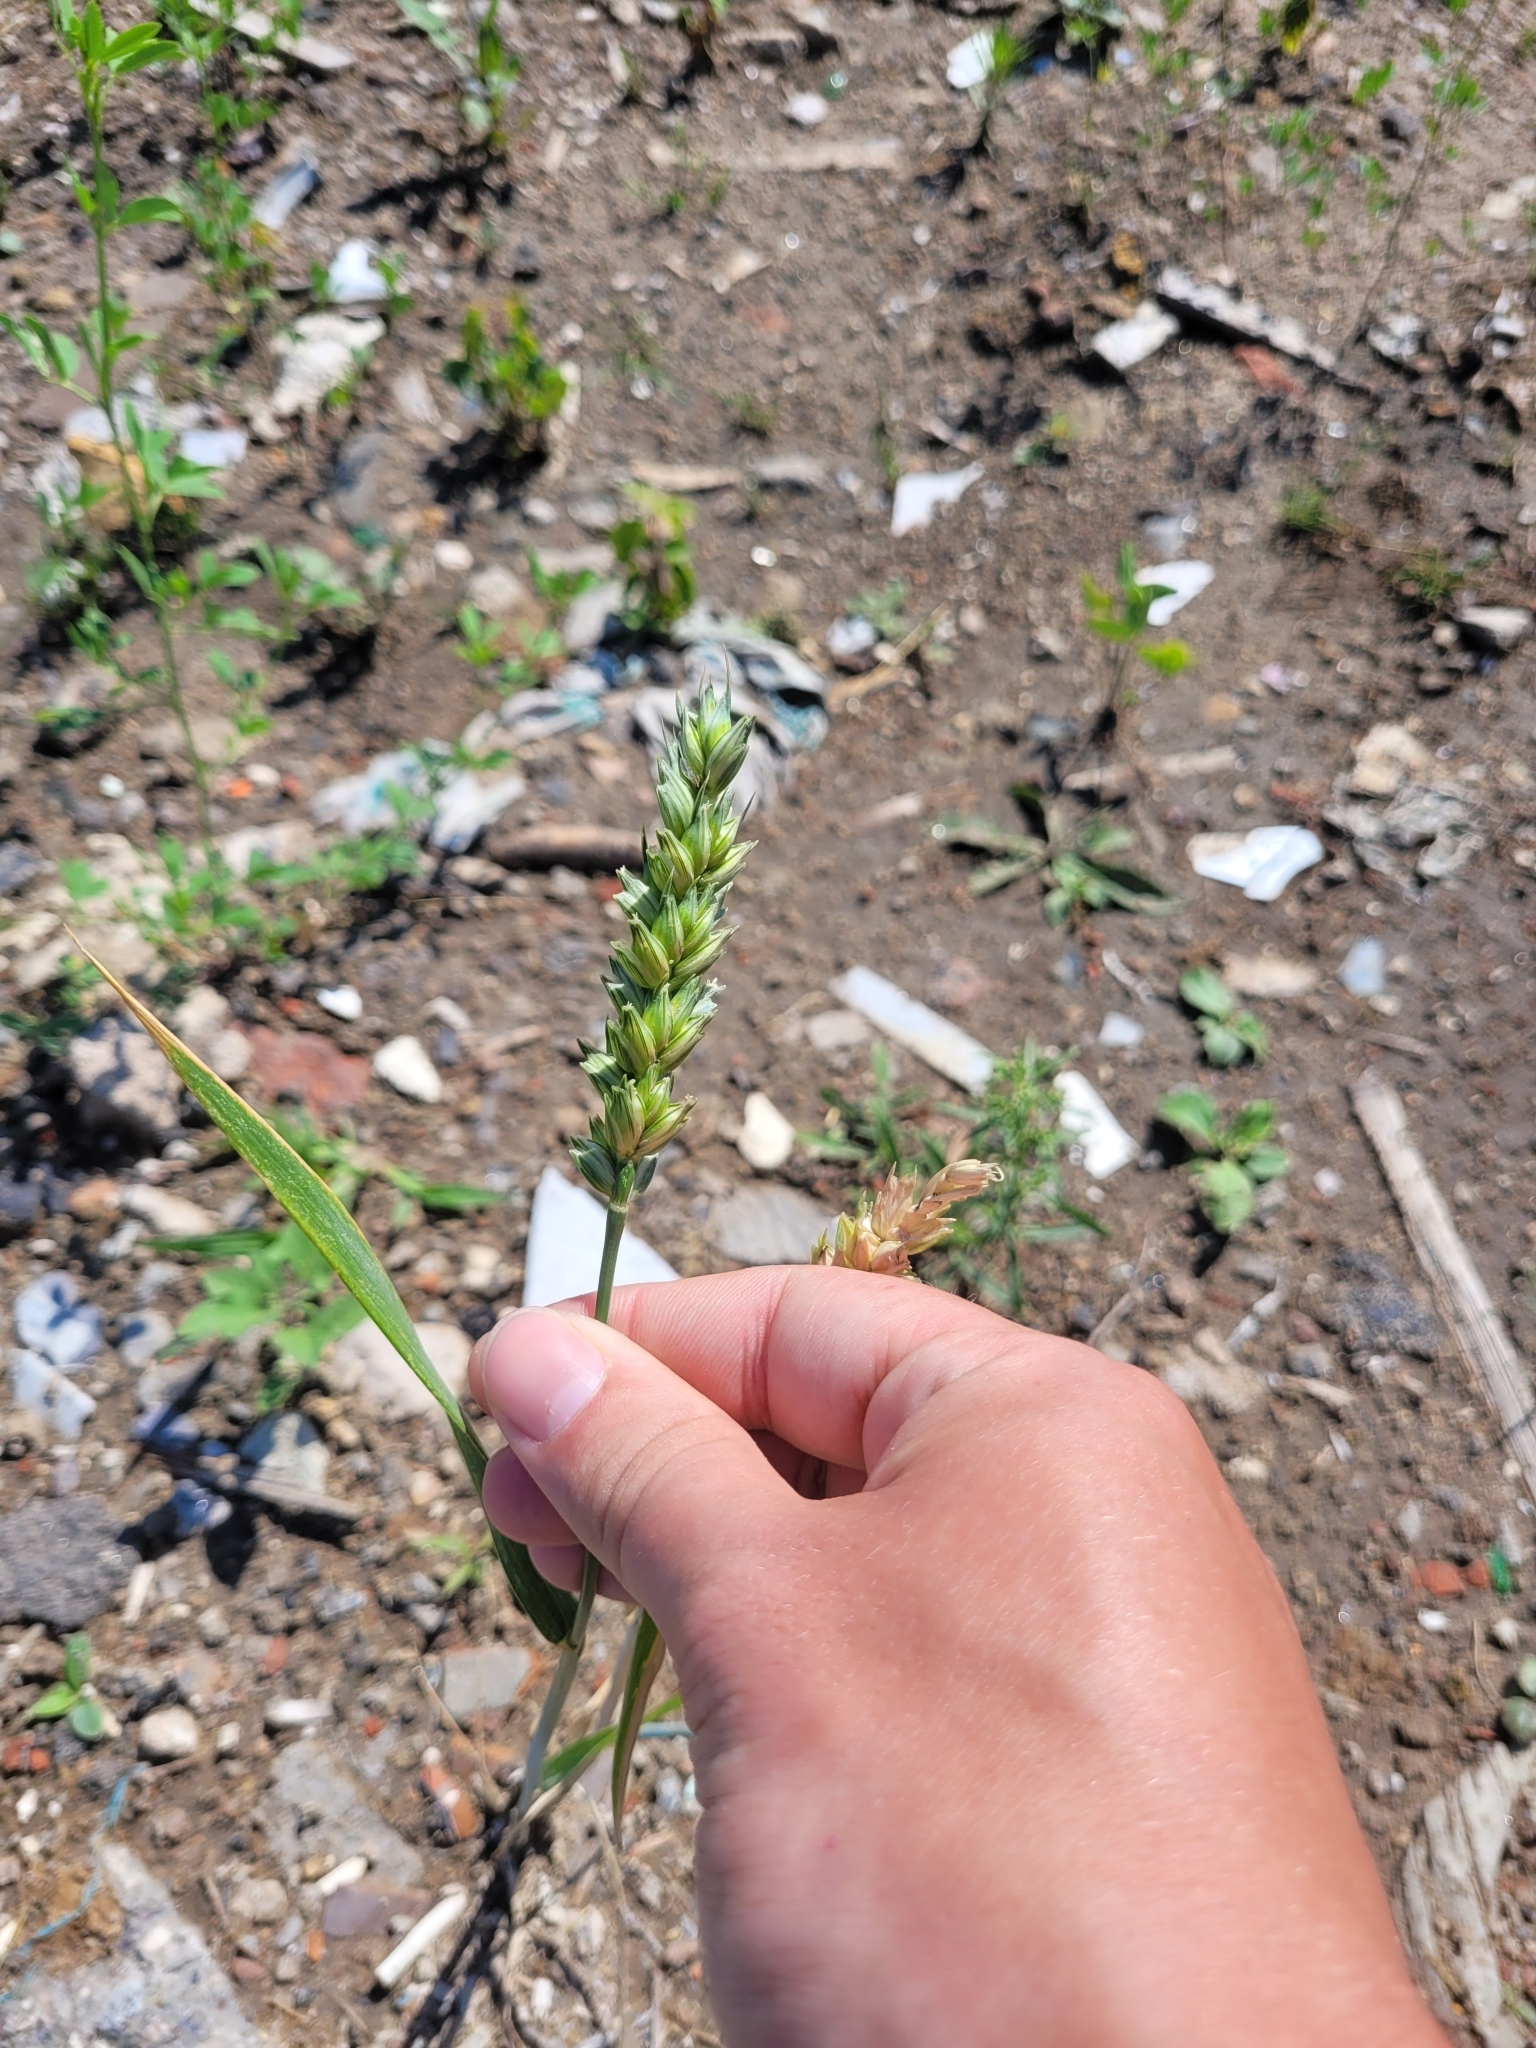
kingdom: Plantae
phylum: Tracheophyta
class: Liliopsida
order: Poales
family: Poaceae
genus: Triticum
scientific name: Triticum aestivum
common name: Common wheat
